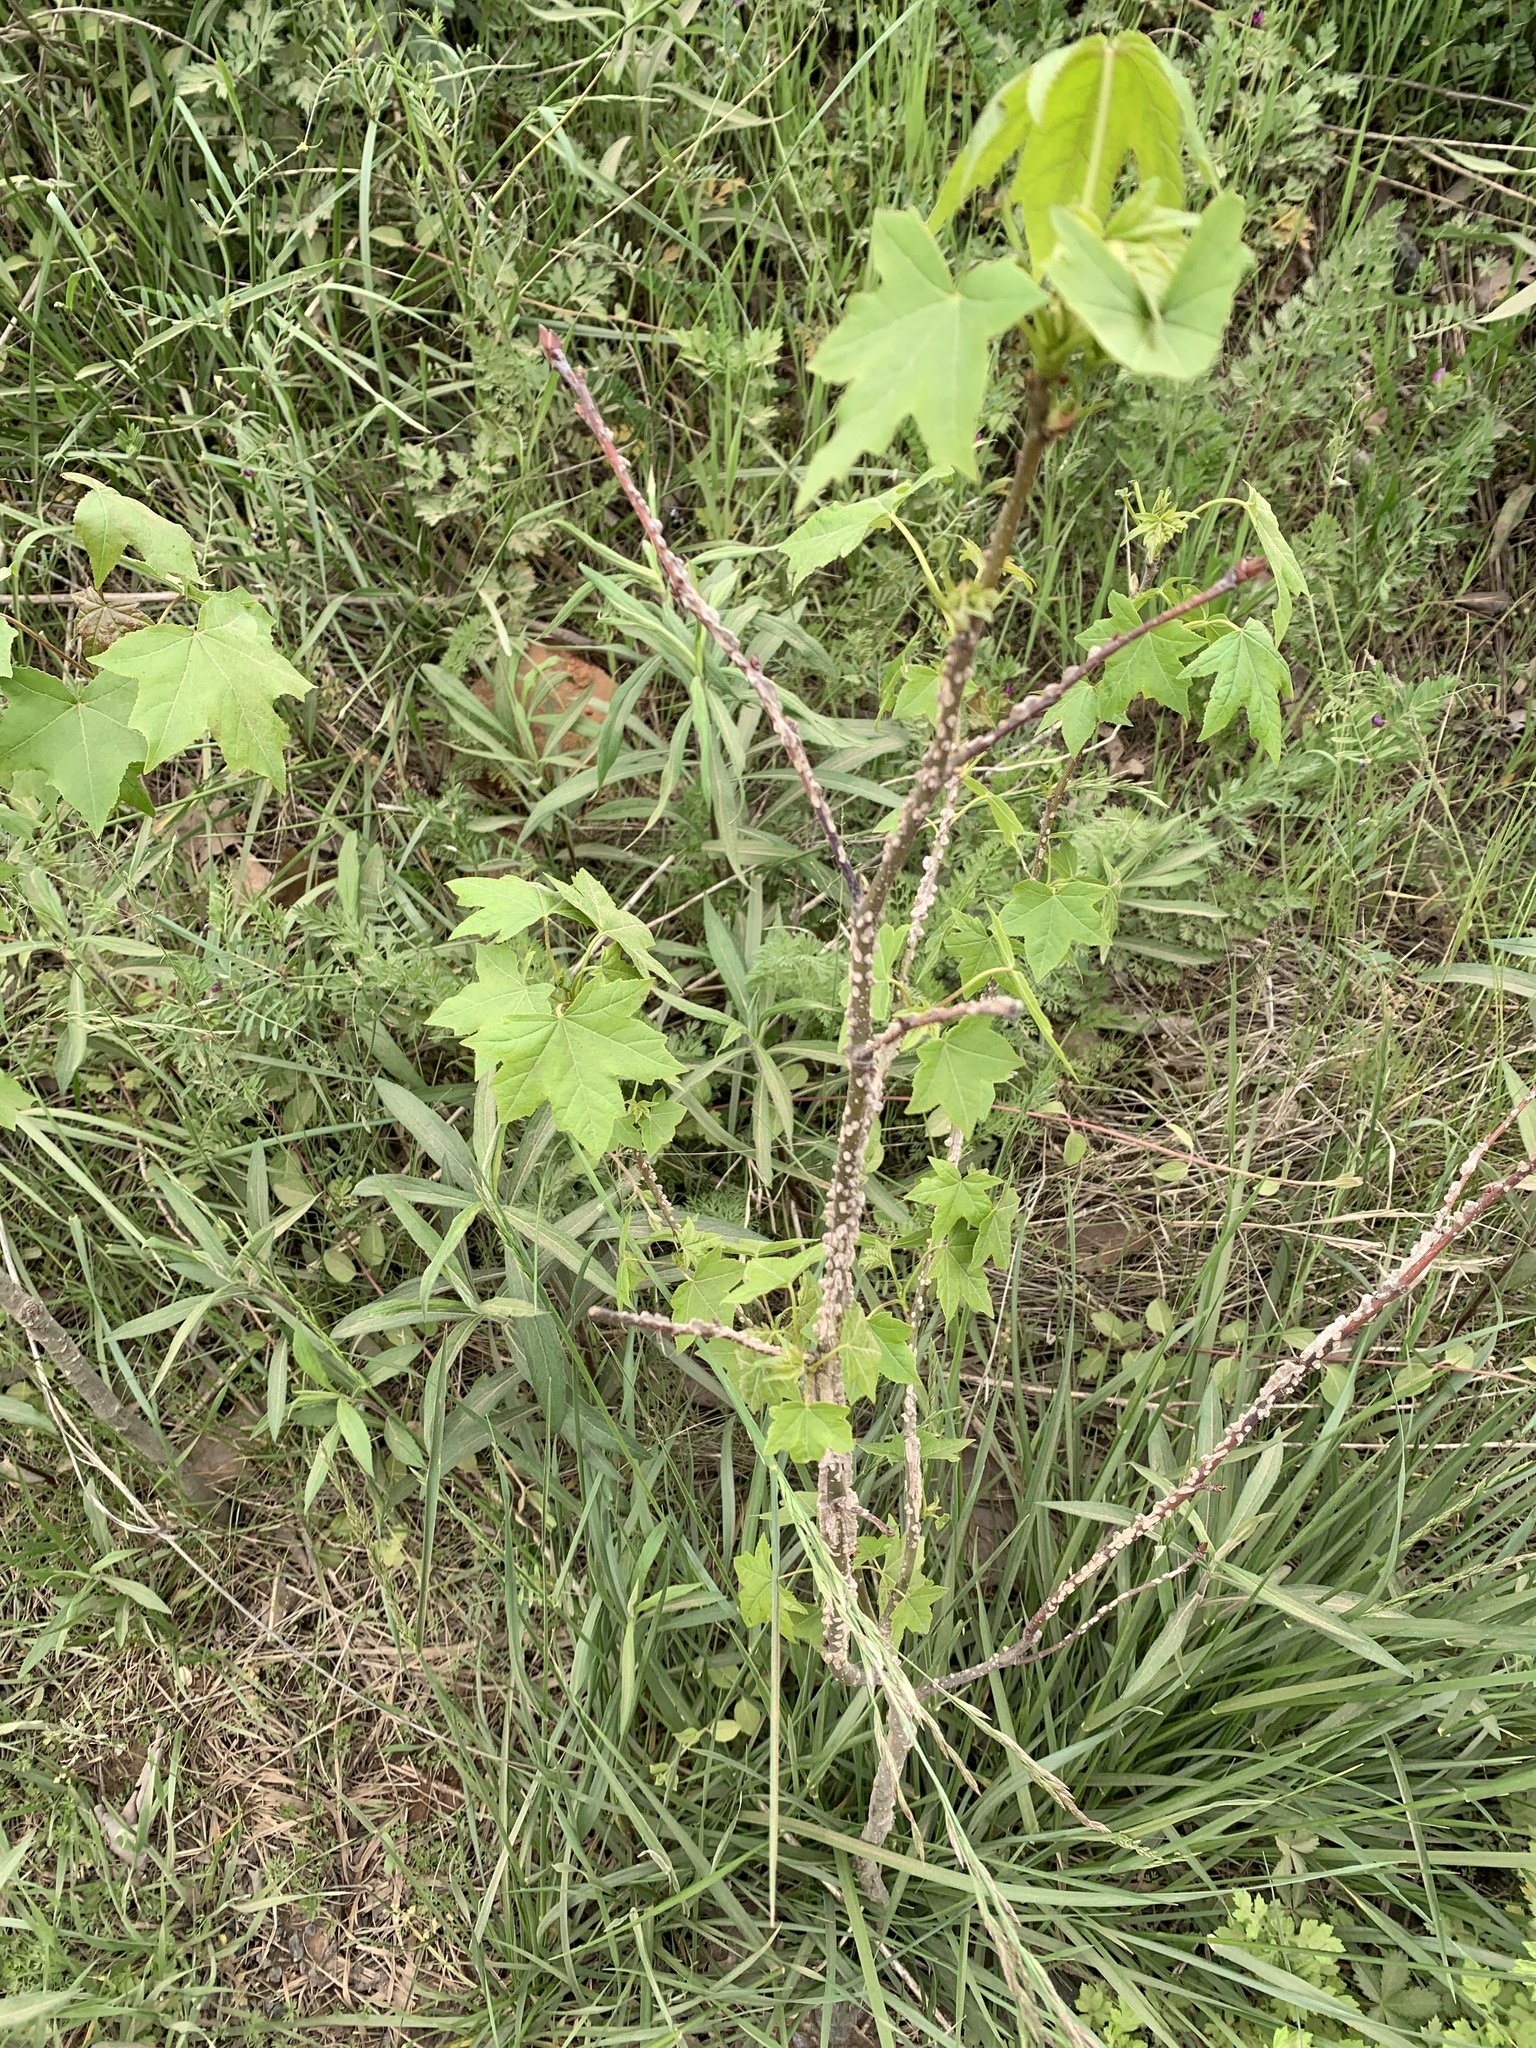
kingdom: Plantae
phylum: Tracheophyta
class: Magnoliopsida
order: Saxifragales
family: Altingiaceae
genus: Liquidambar
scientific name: Liquidambar styraciflua
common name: Sweet gum
